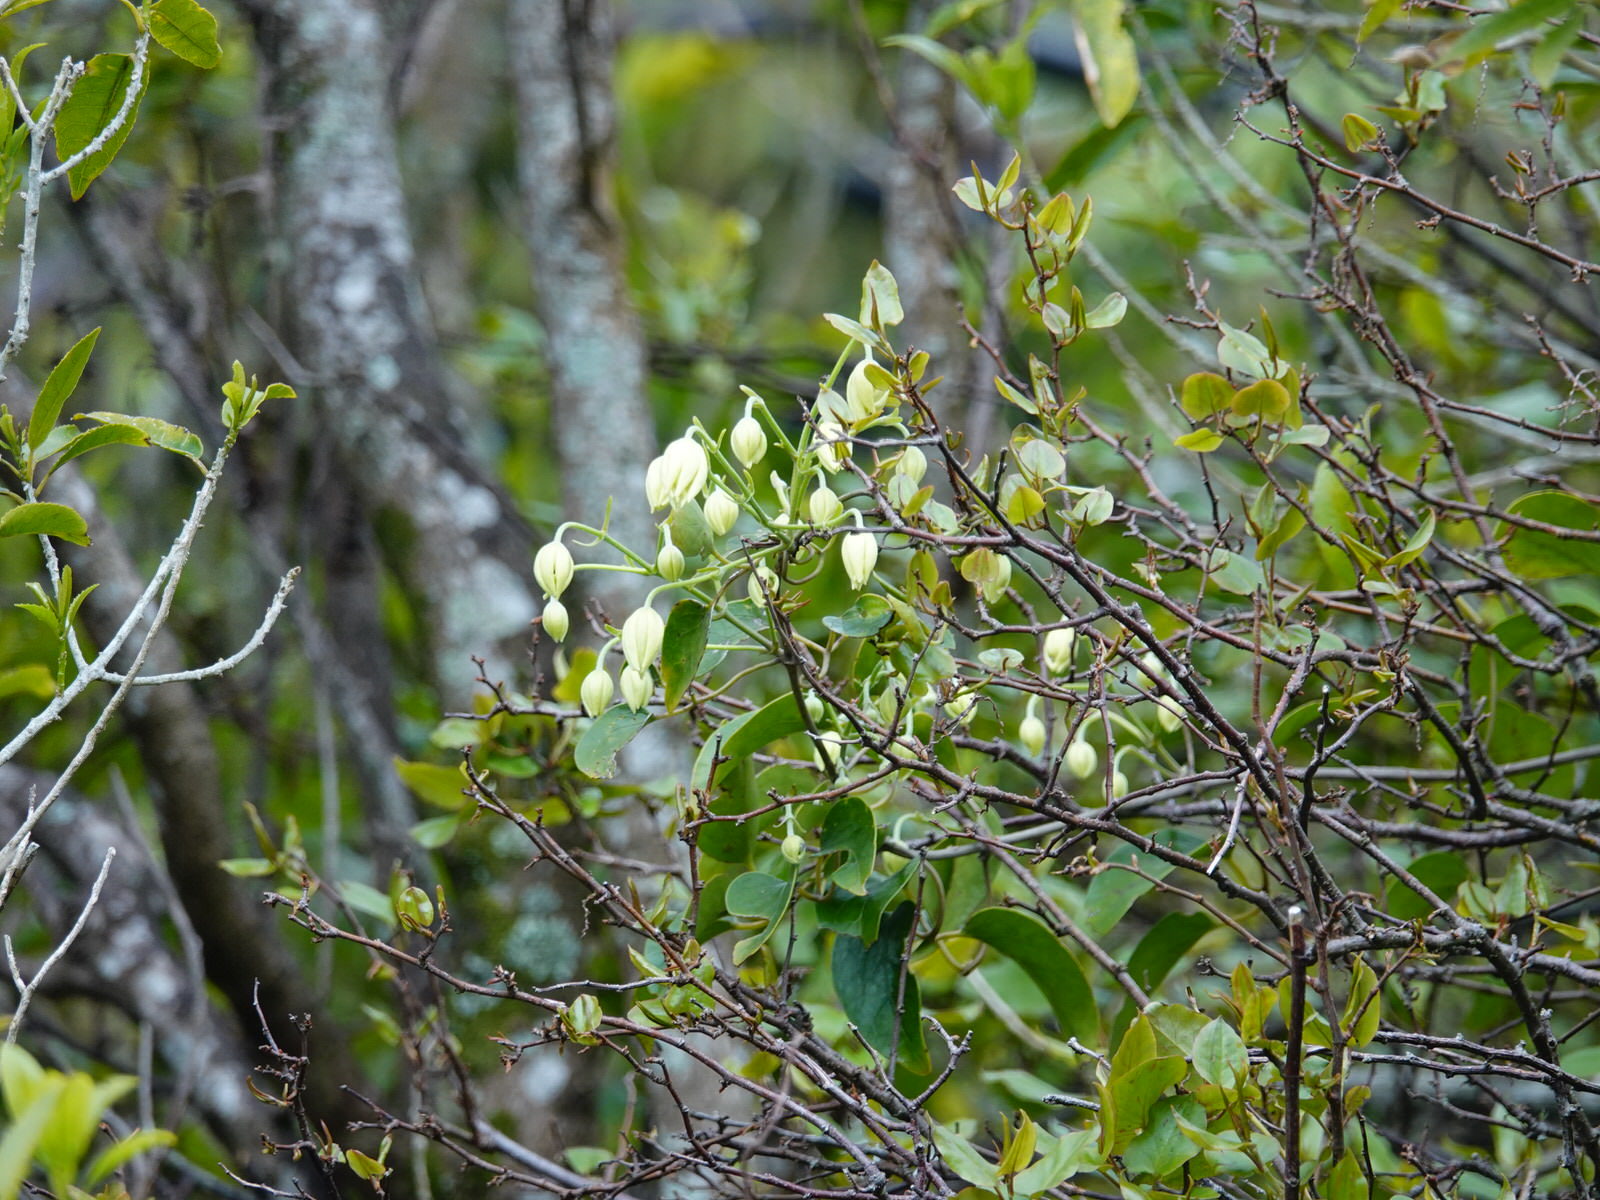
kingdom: Plantae
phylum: Tracheophyta
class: Magnoliopsida
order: Ranunculales
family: Ranunculaceae
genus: Clematis
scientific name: Clematis paniculata
